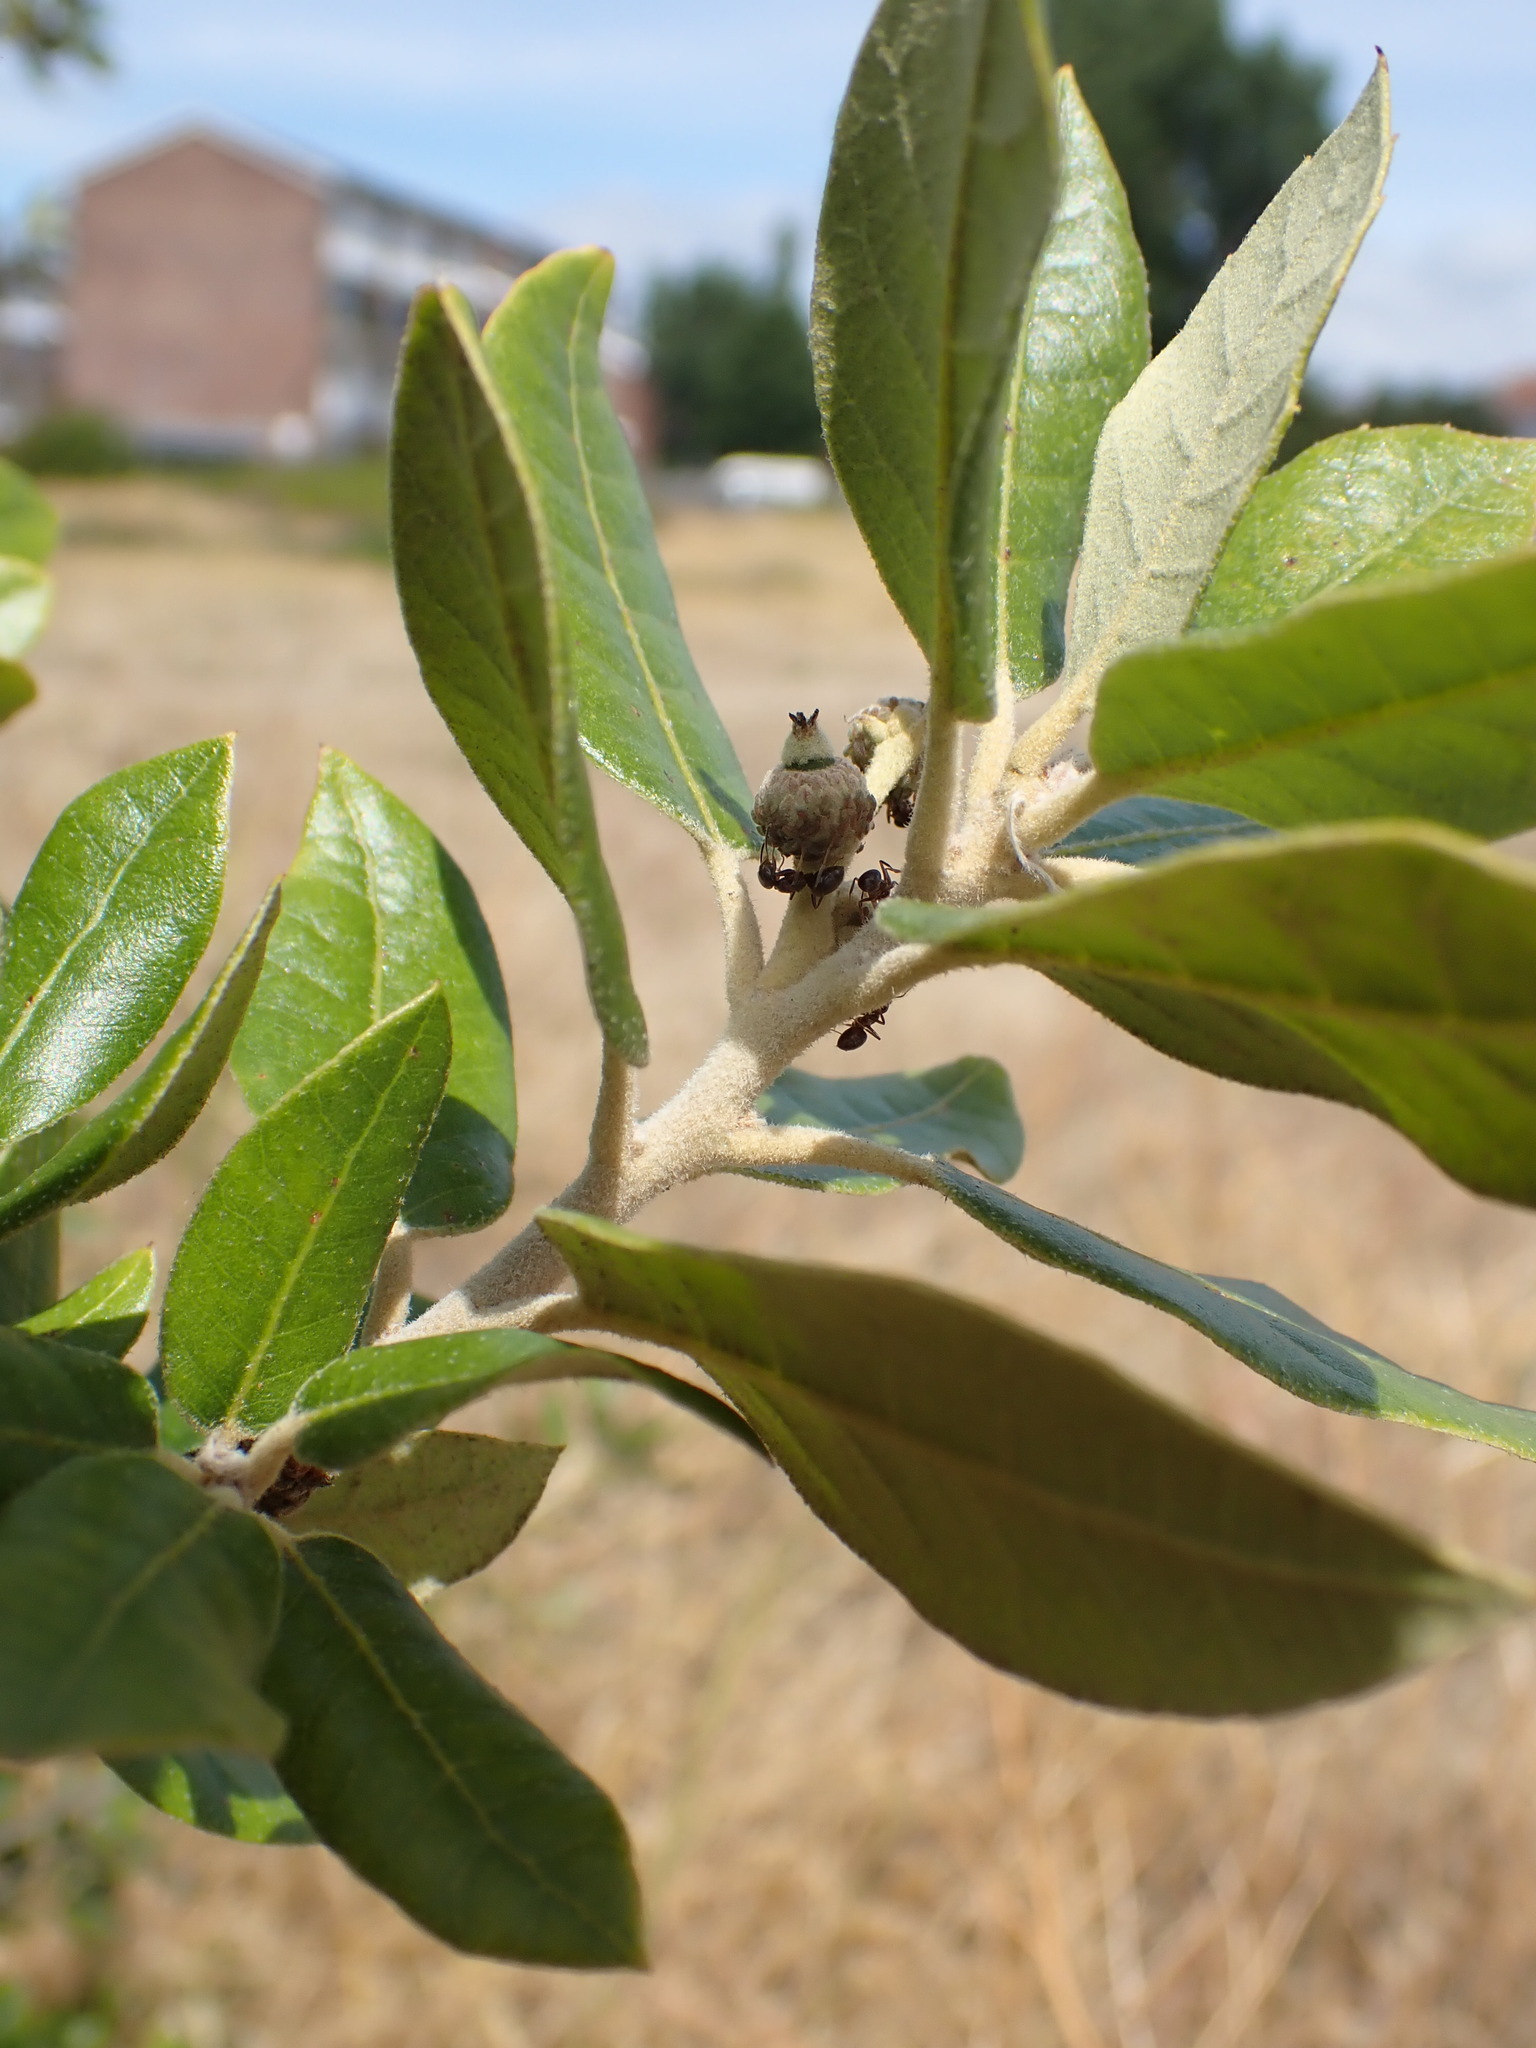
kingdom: Plantae
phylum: Tracheophyta
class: Magnoliopsida
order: Fagales
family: Fagaceae
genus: Quercus
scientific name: Quercus ilex
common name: Evergreen oak
